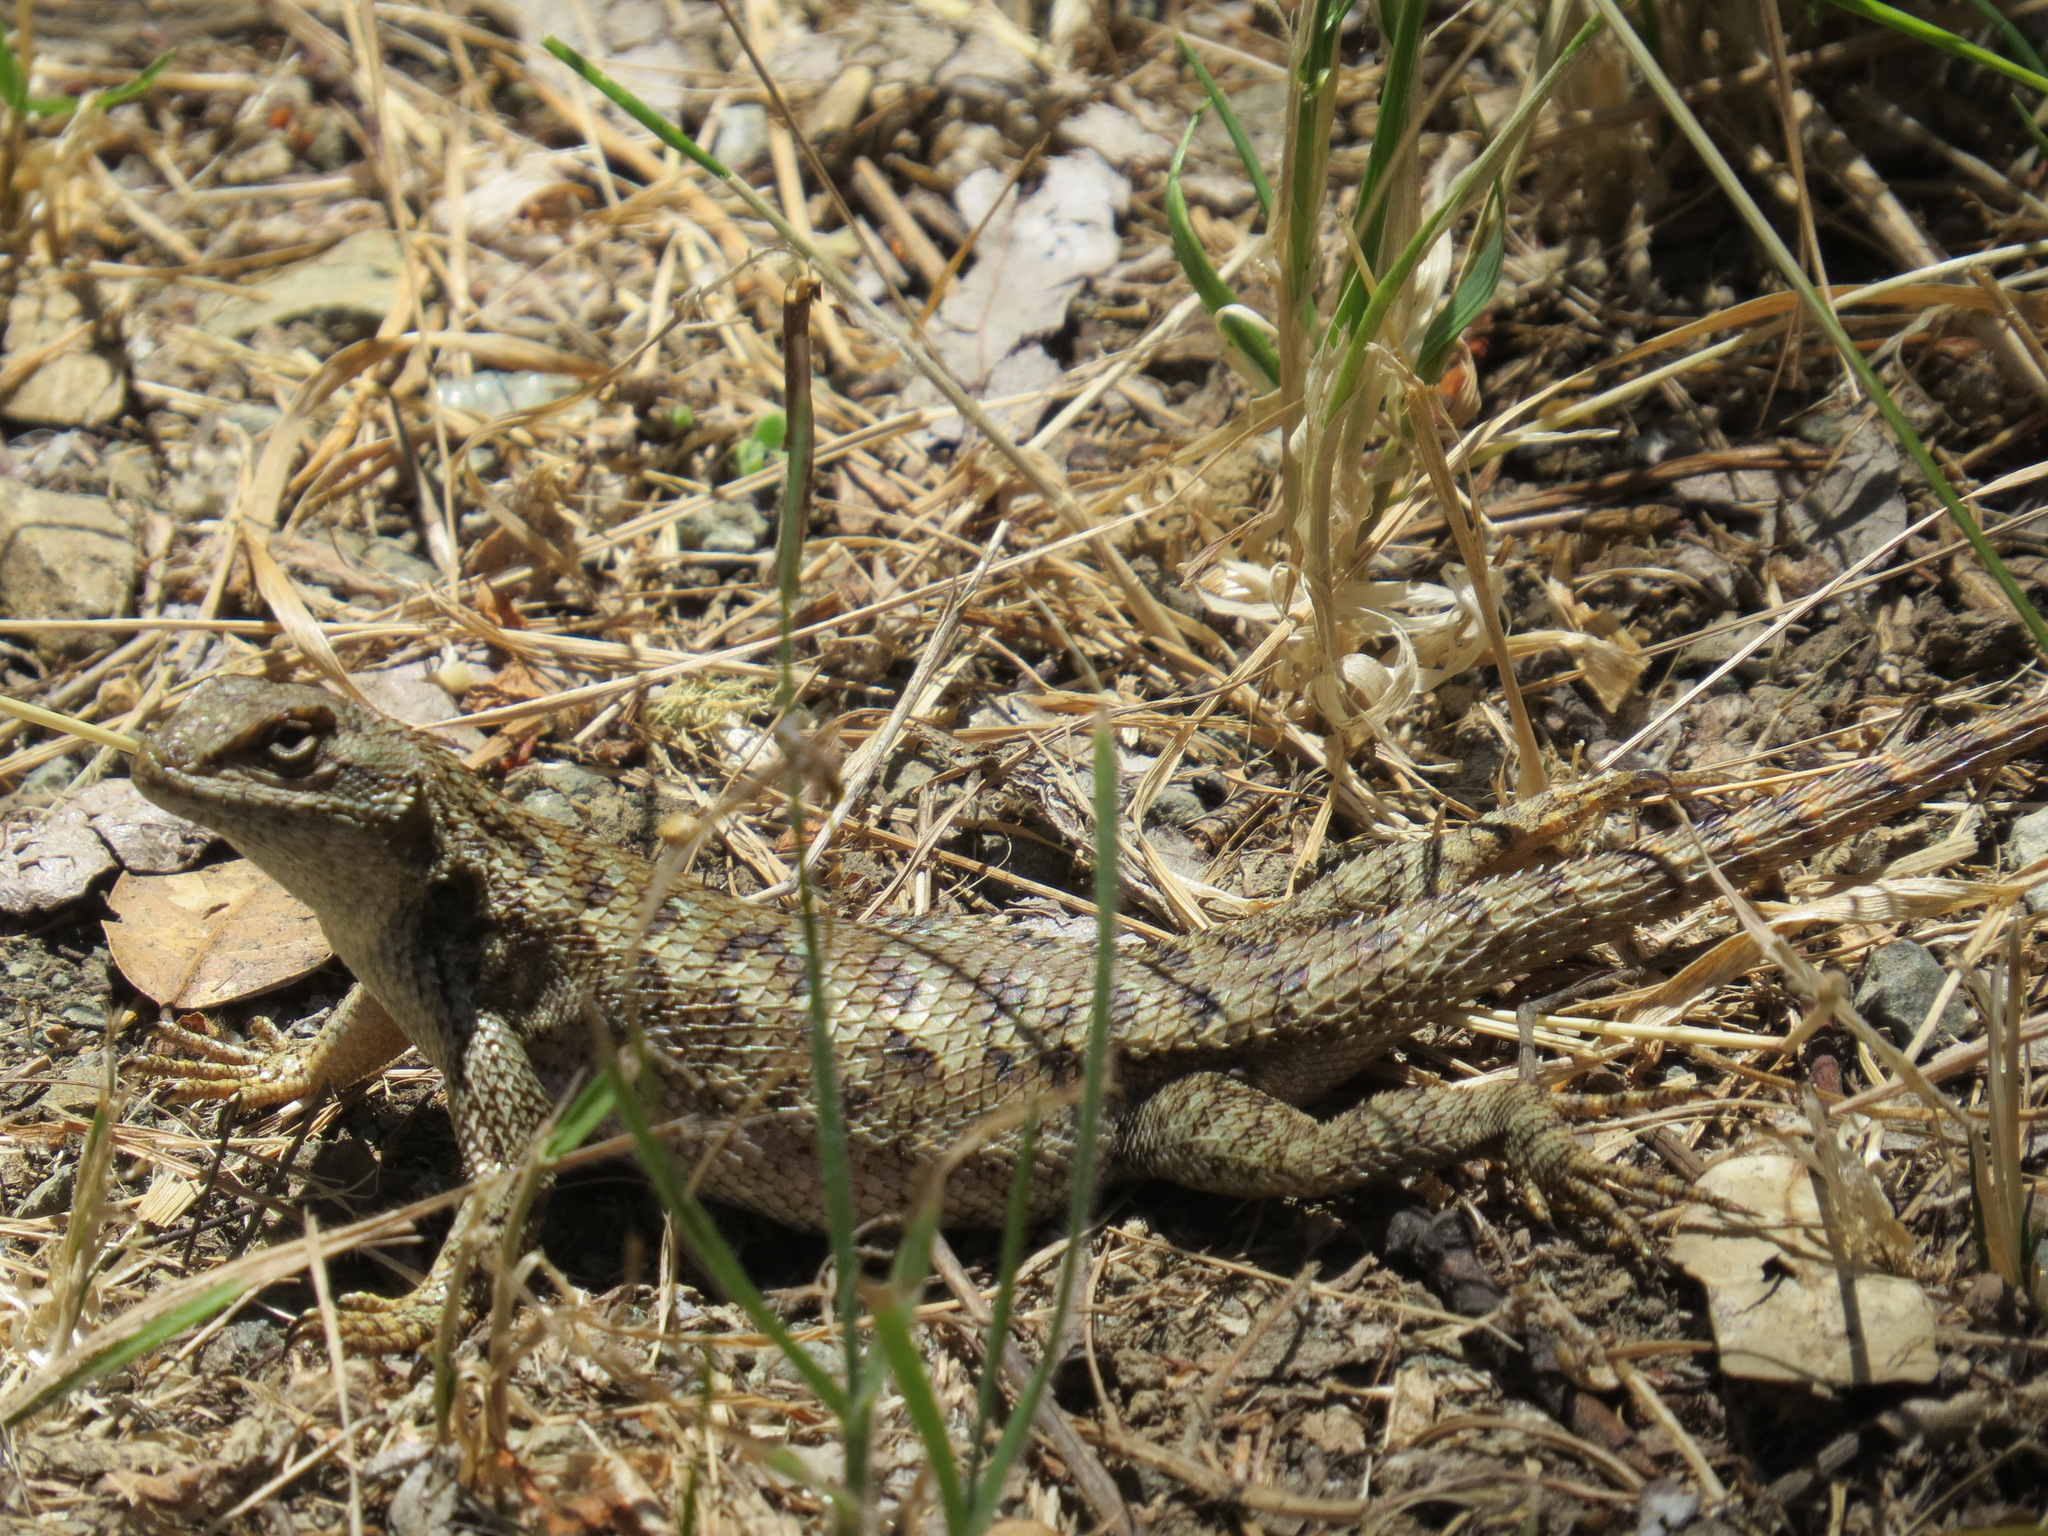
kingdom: Animalia
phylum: Chordata
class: Squamata
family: Phrynosomatidae
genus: Sceloporus
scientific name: Sceloporus occidentalis
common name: Western fence lizard
